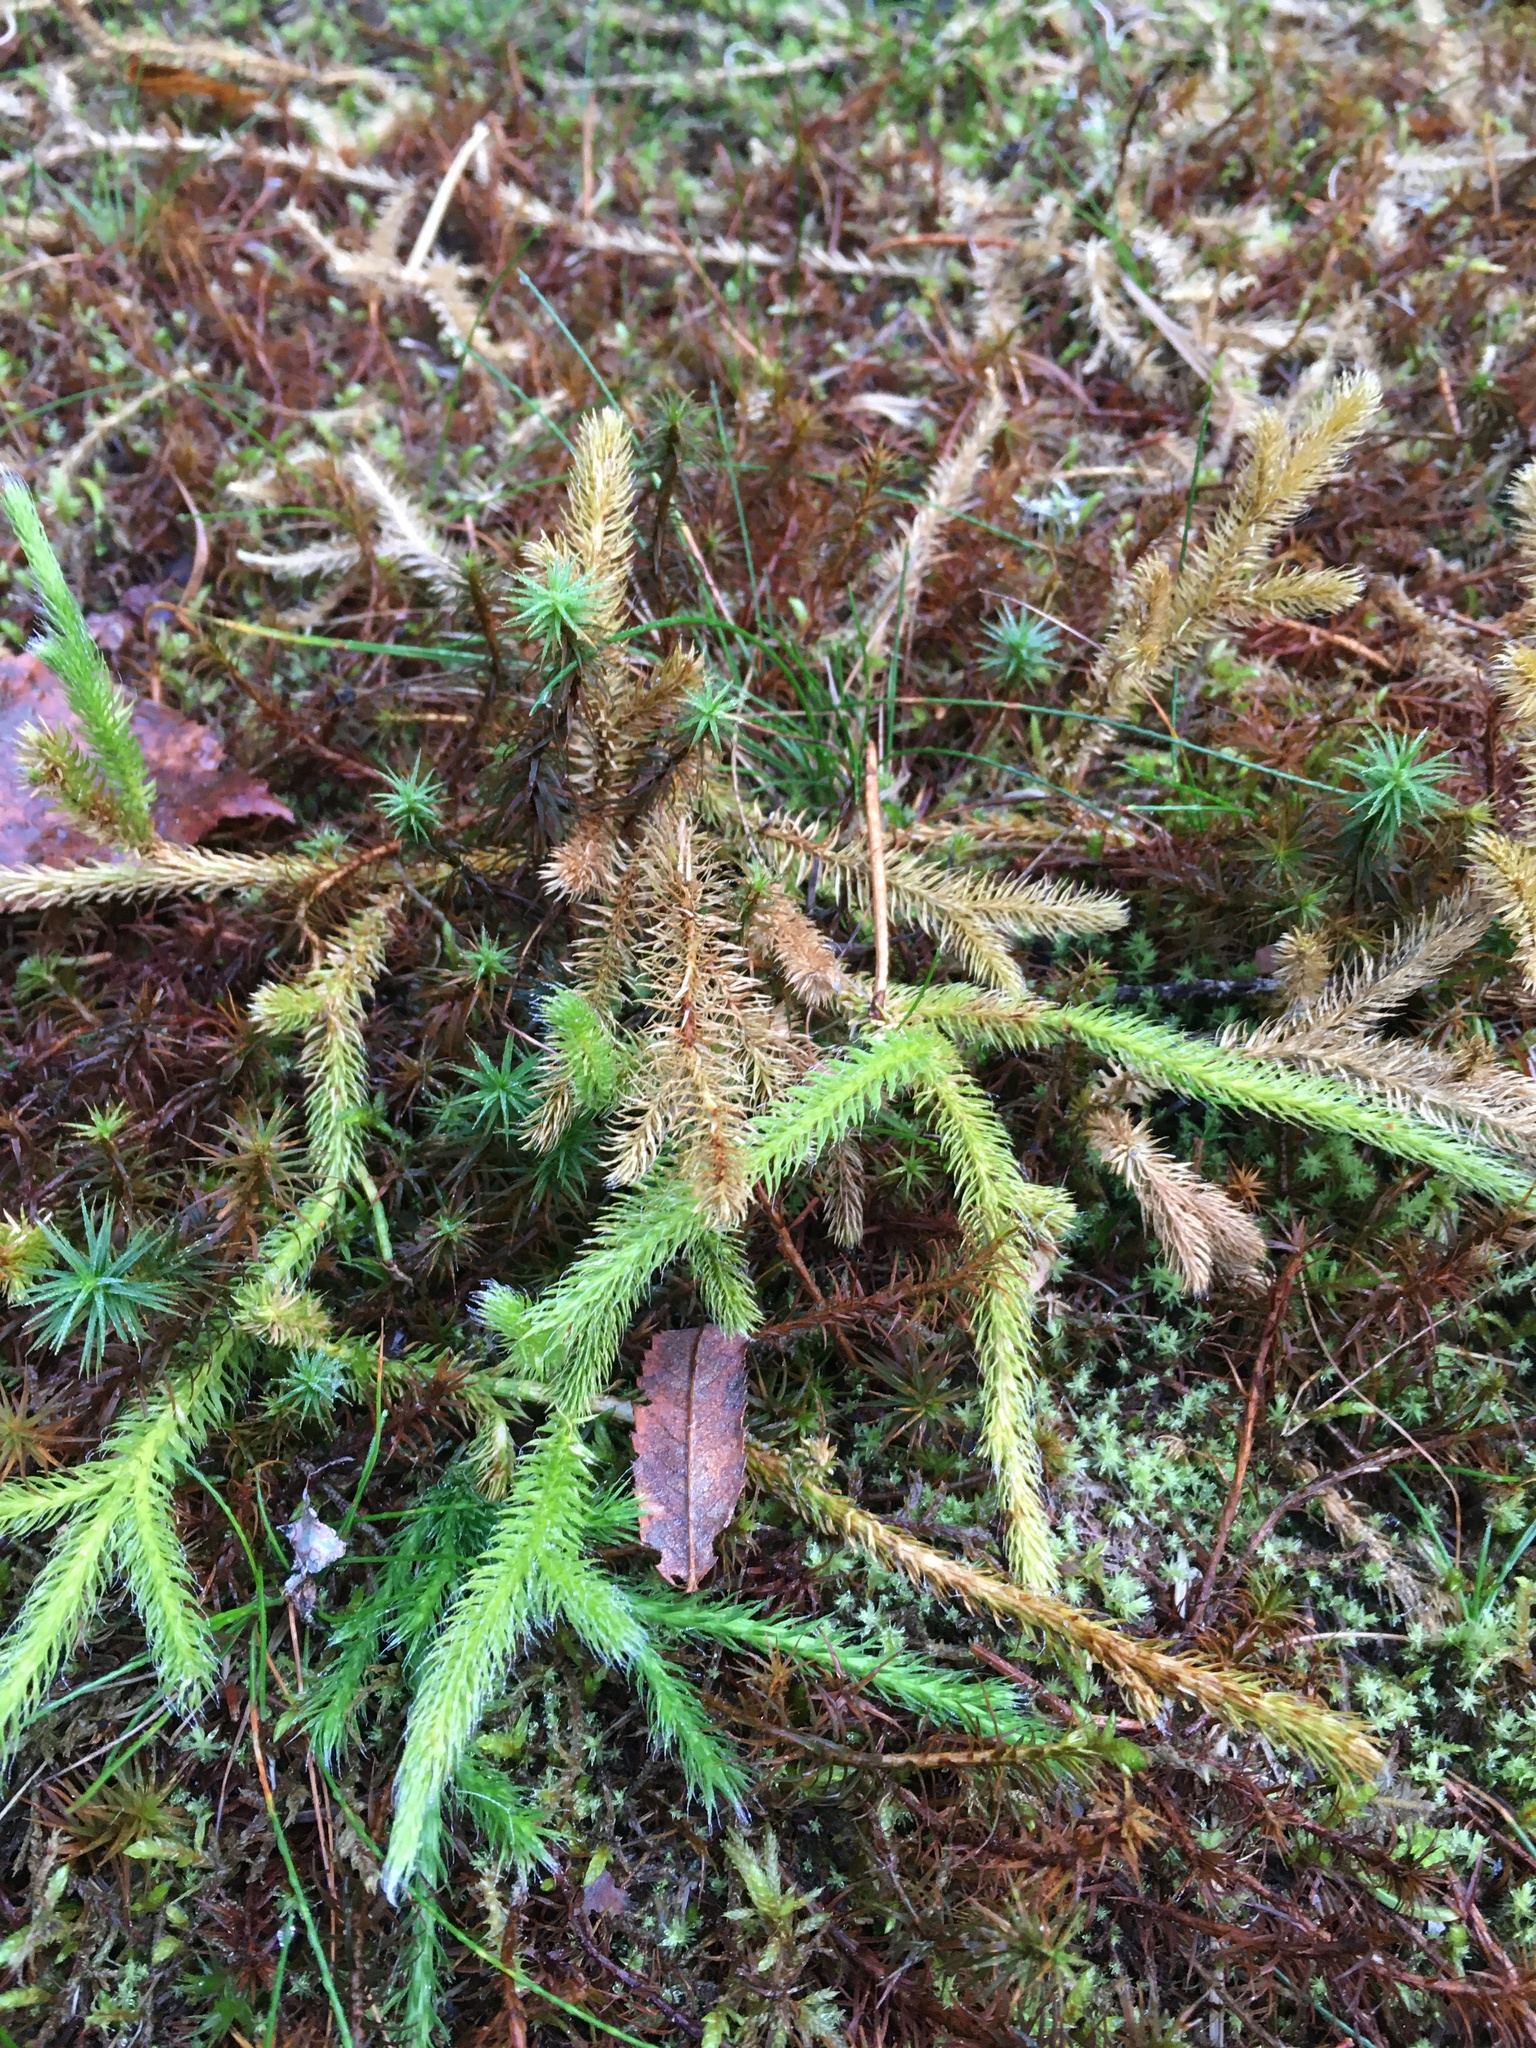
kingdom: Plantae
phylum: Tracheophyta
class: Lycopodiopsida
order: Lycopodiales
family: Lycopodiaceae
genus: Lycopodium
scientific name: Lycopodium clavatum
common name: Stag's-horn clubmoss
